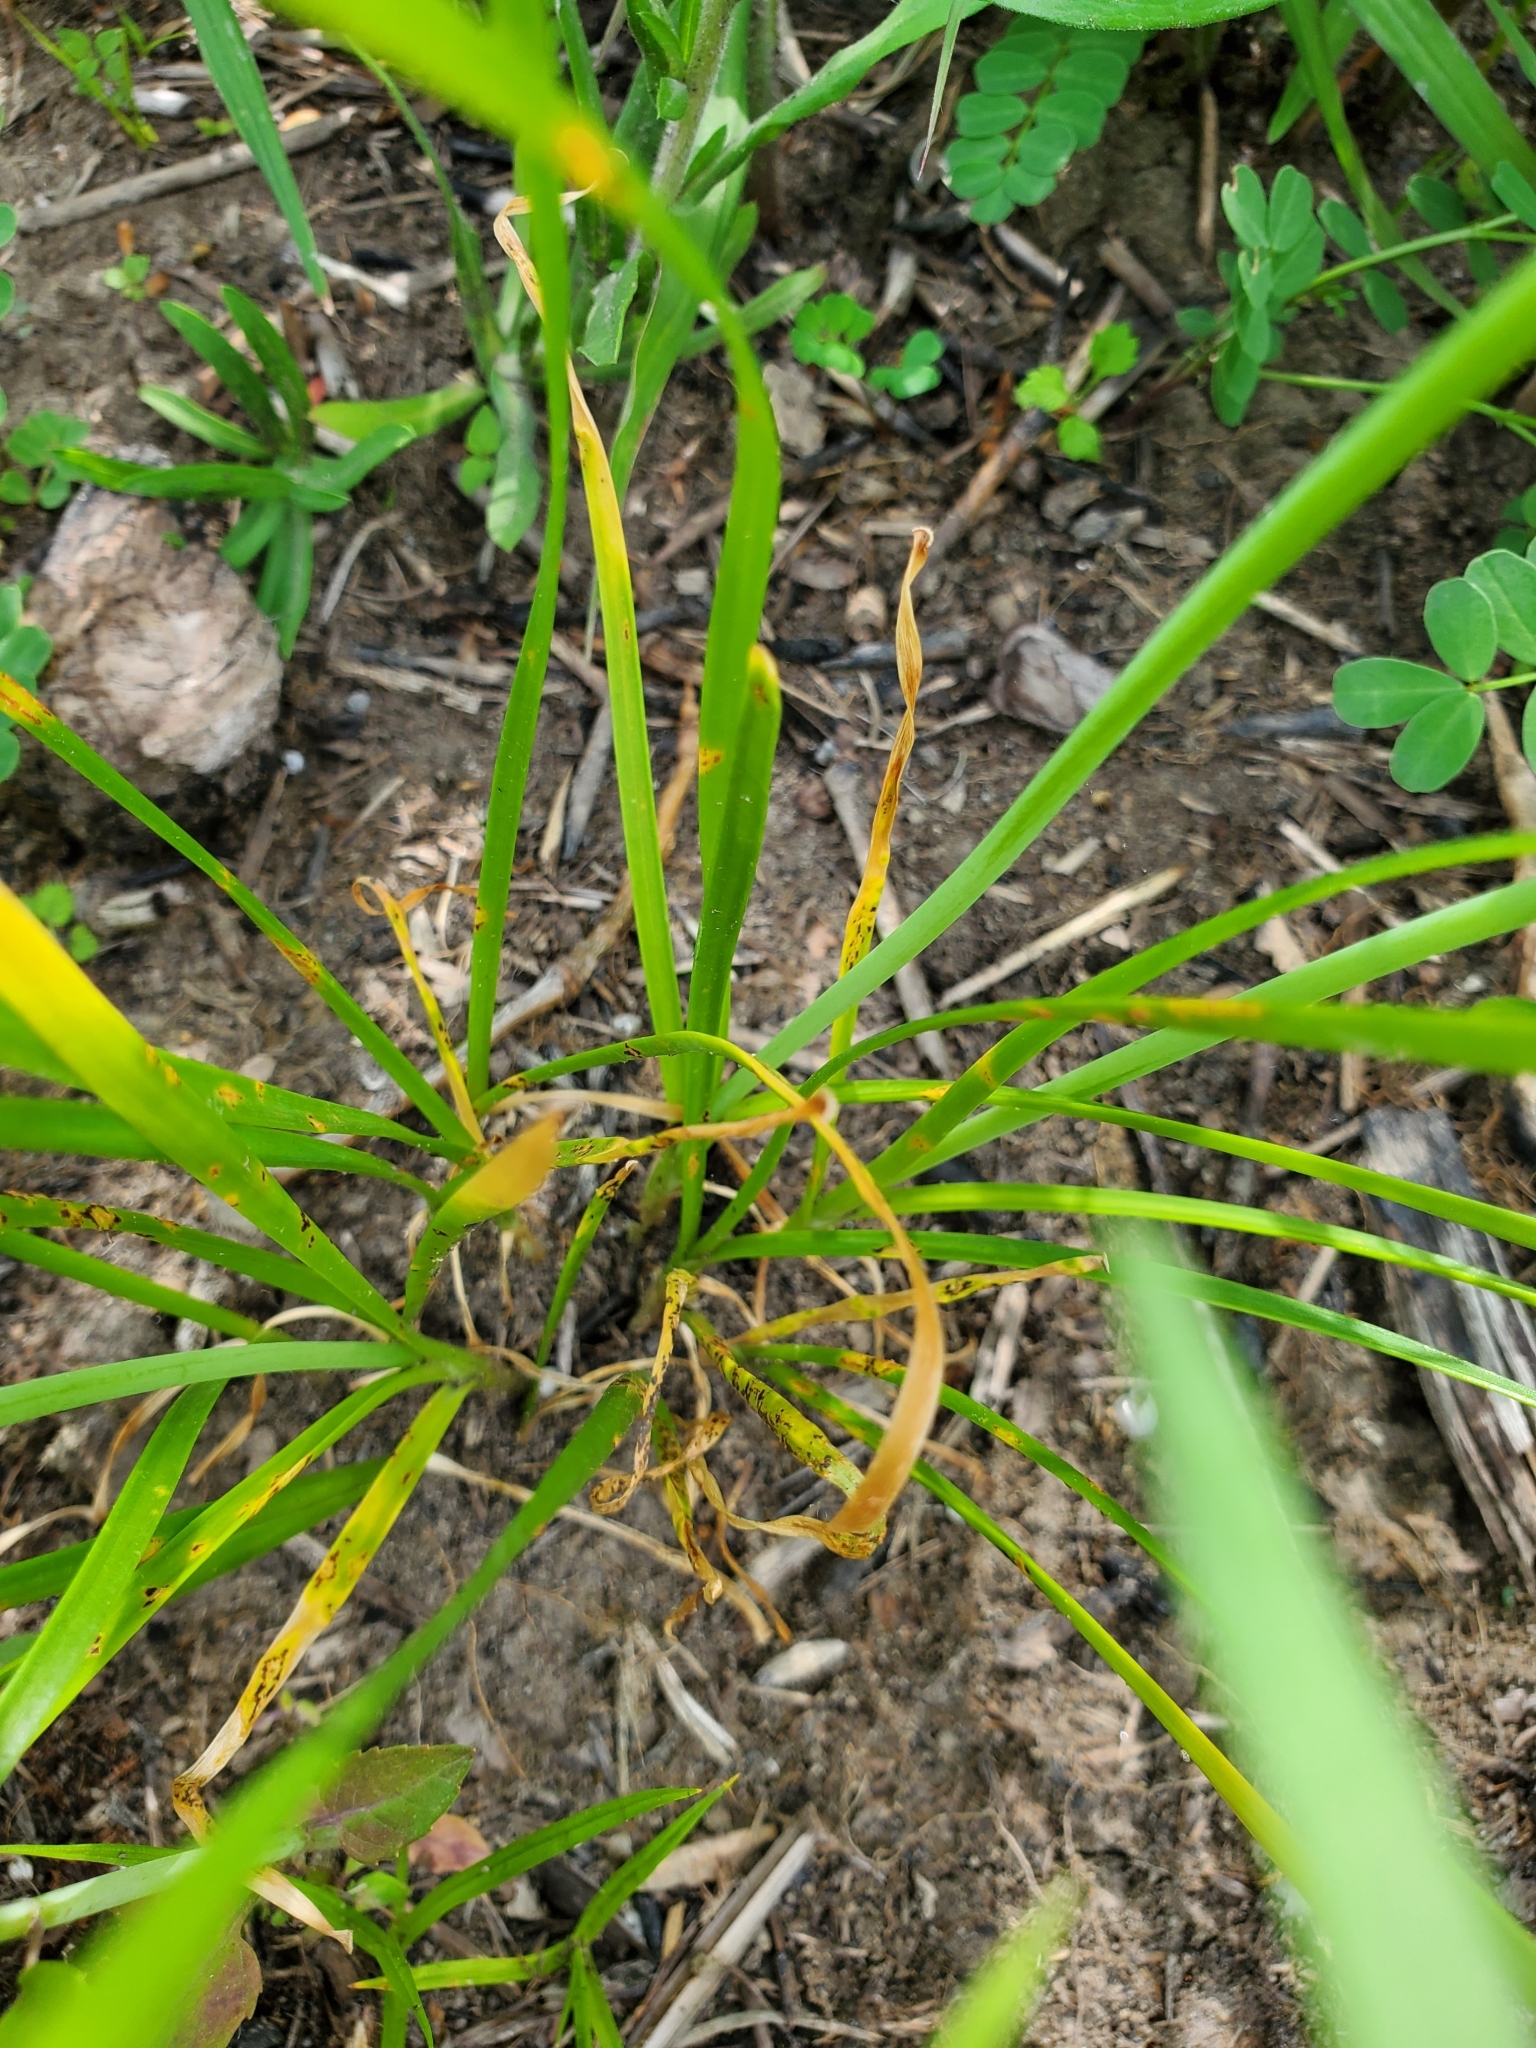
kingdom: Plantae
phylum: Tracheophyta
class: Liliopsida
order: Asparagales
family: Amaryllidaceae
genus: Allium
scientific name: Allium canadense
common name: Meadow garlic
